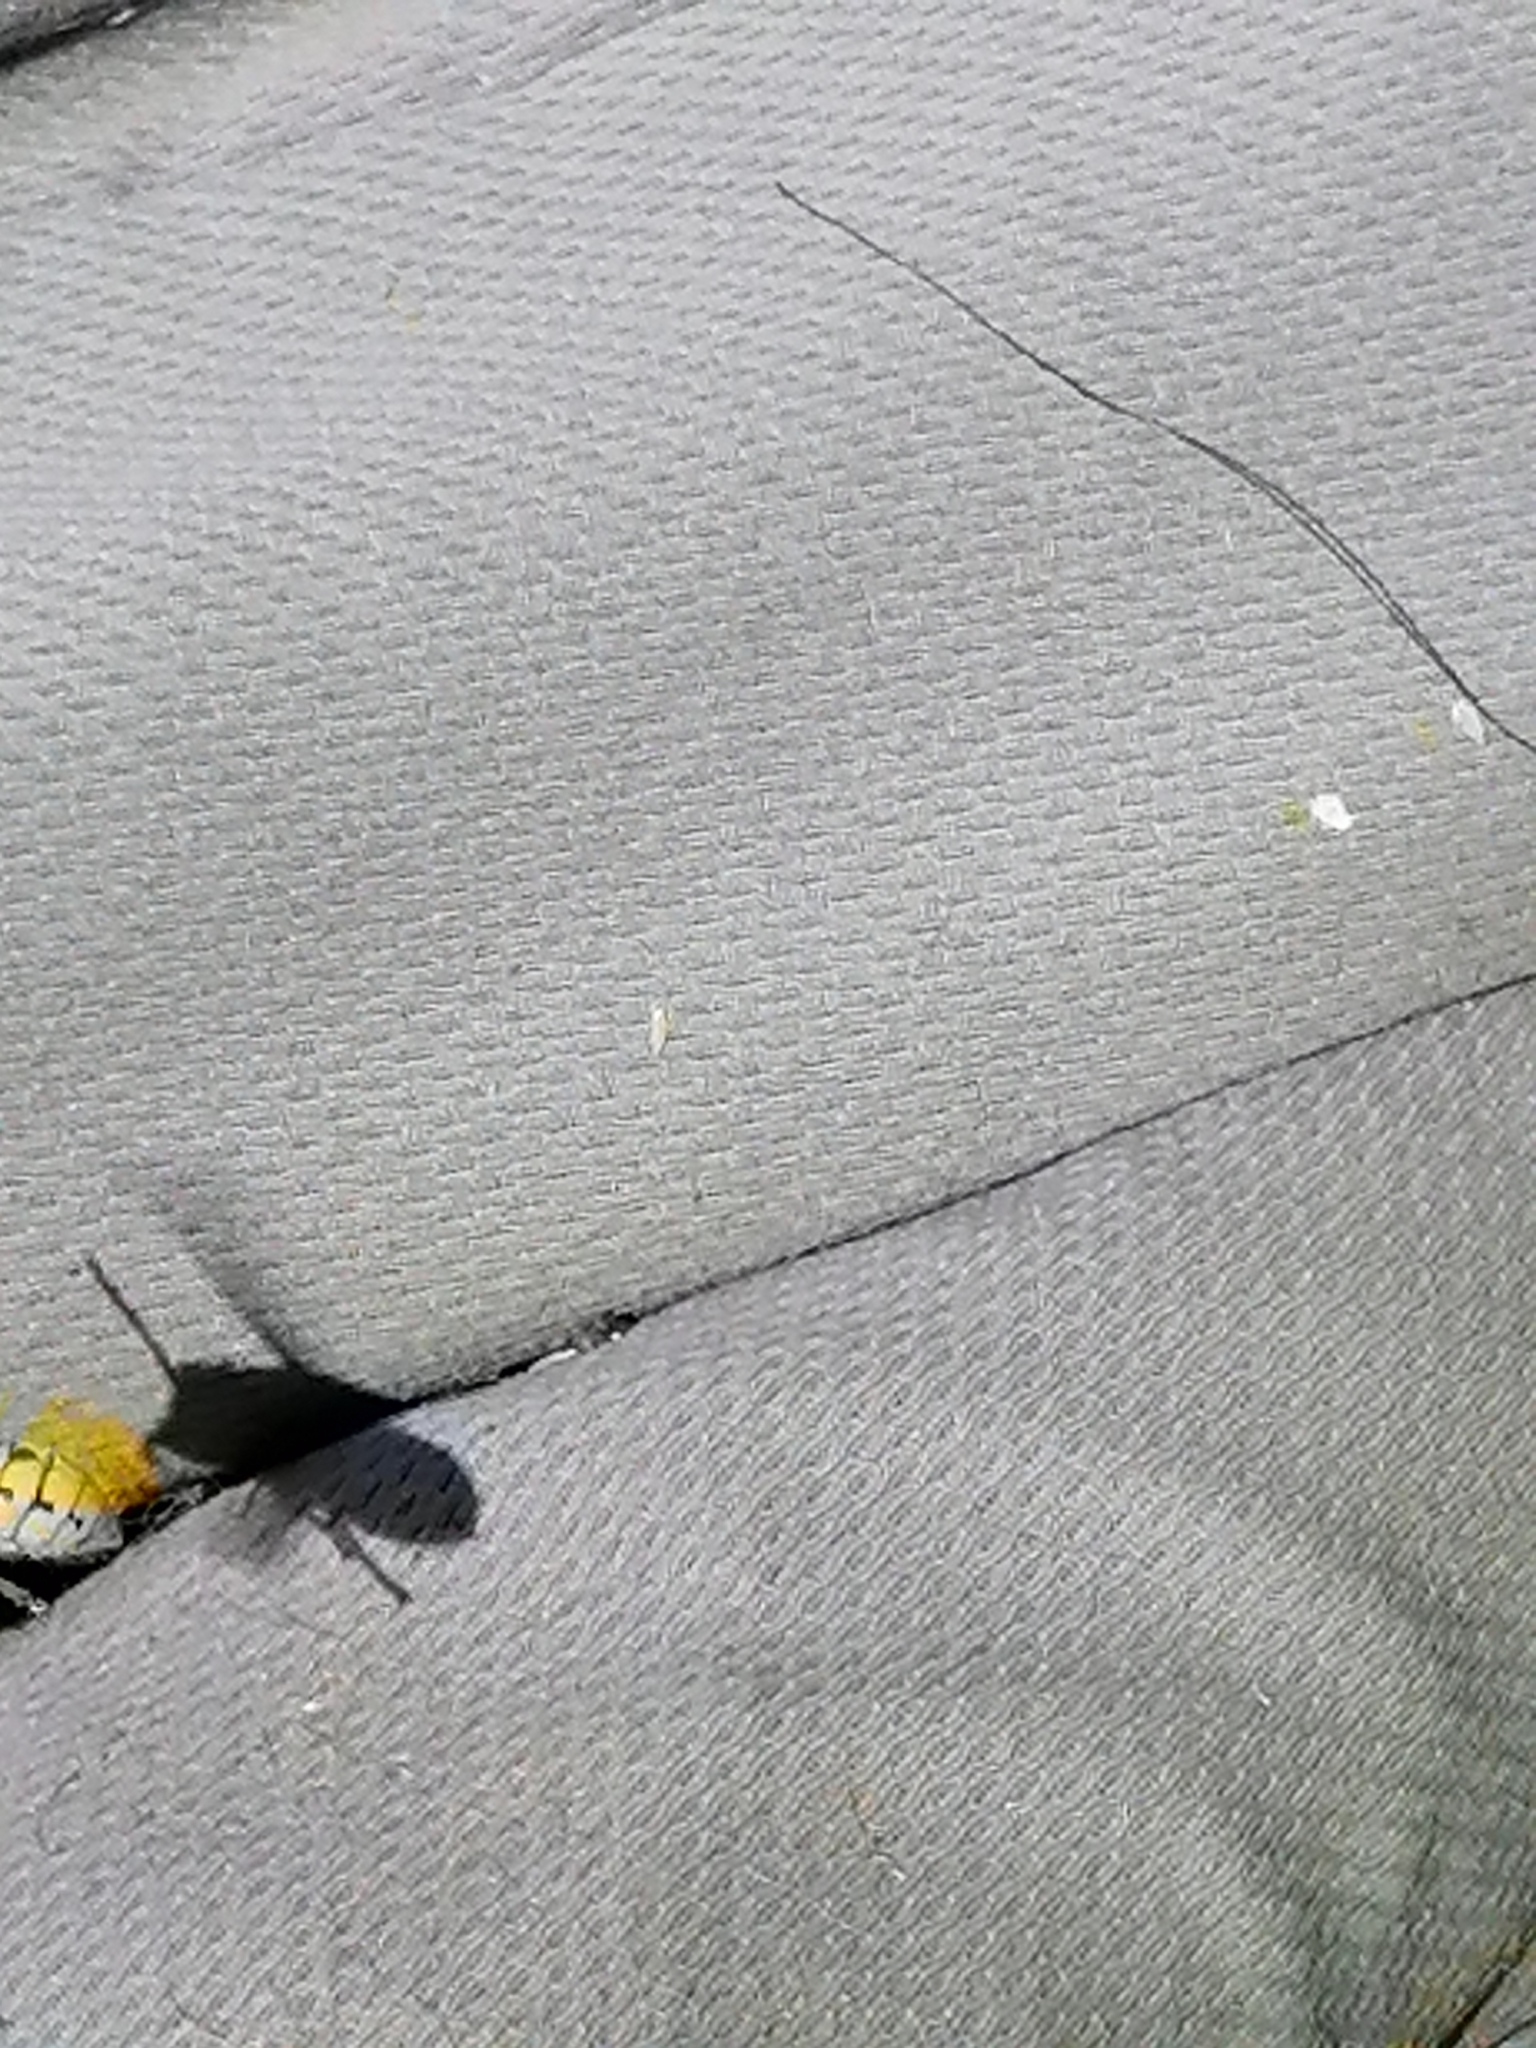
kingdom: Animalia
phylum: Arthropoda
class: Insecta
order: Hymenoptera
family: Vespidae
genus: Vespa
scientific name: Vespa crabro
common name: Hornet
